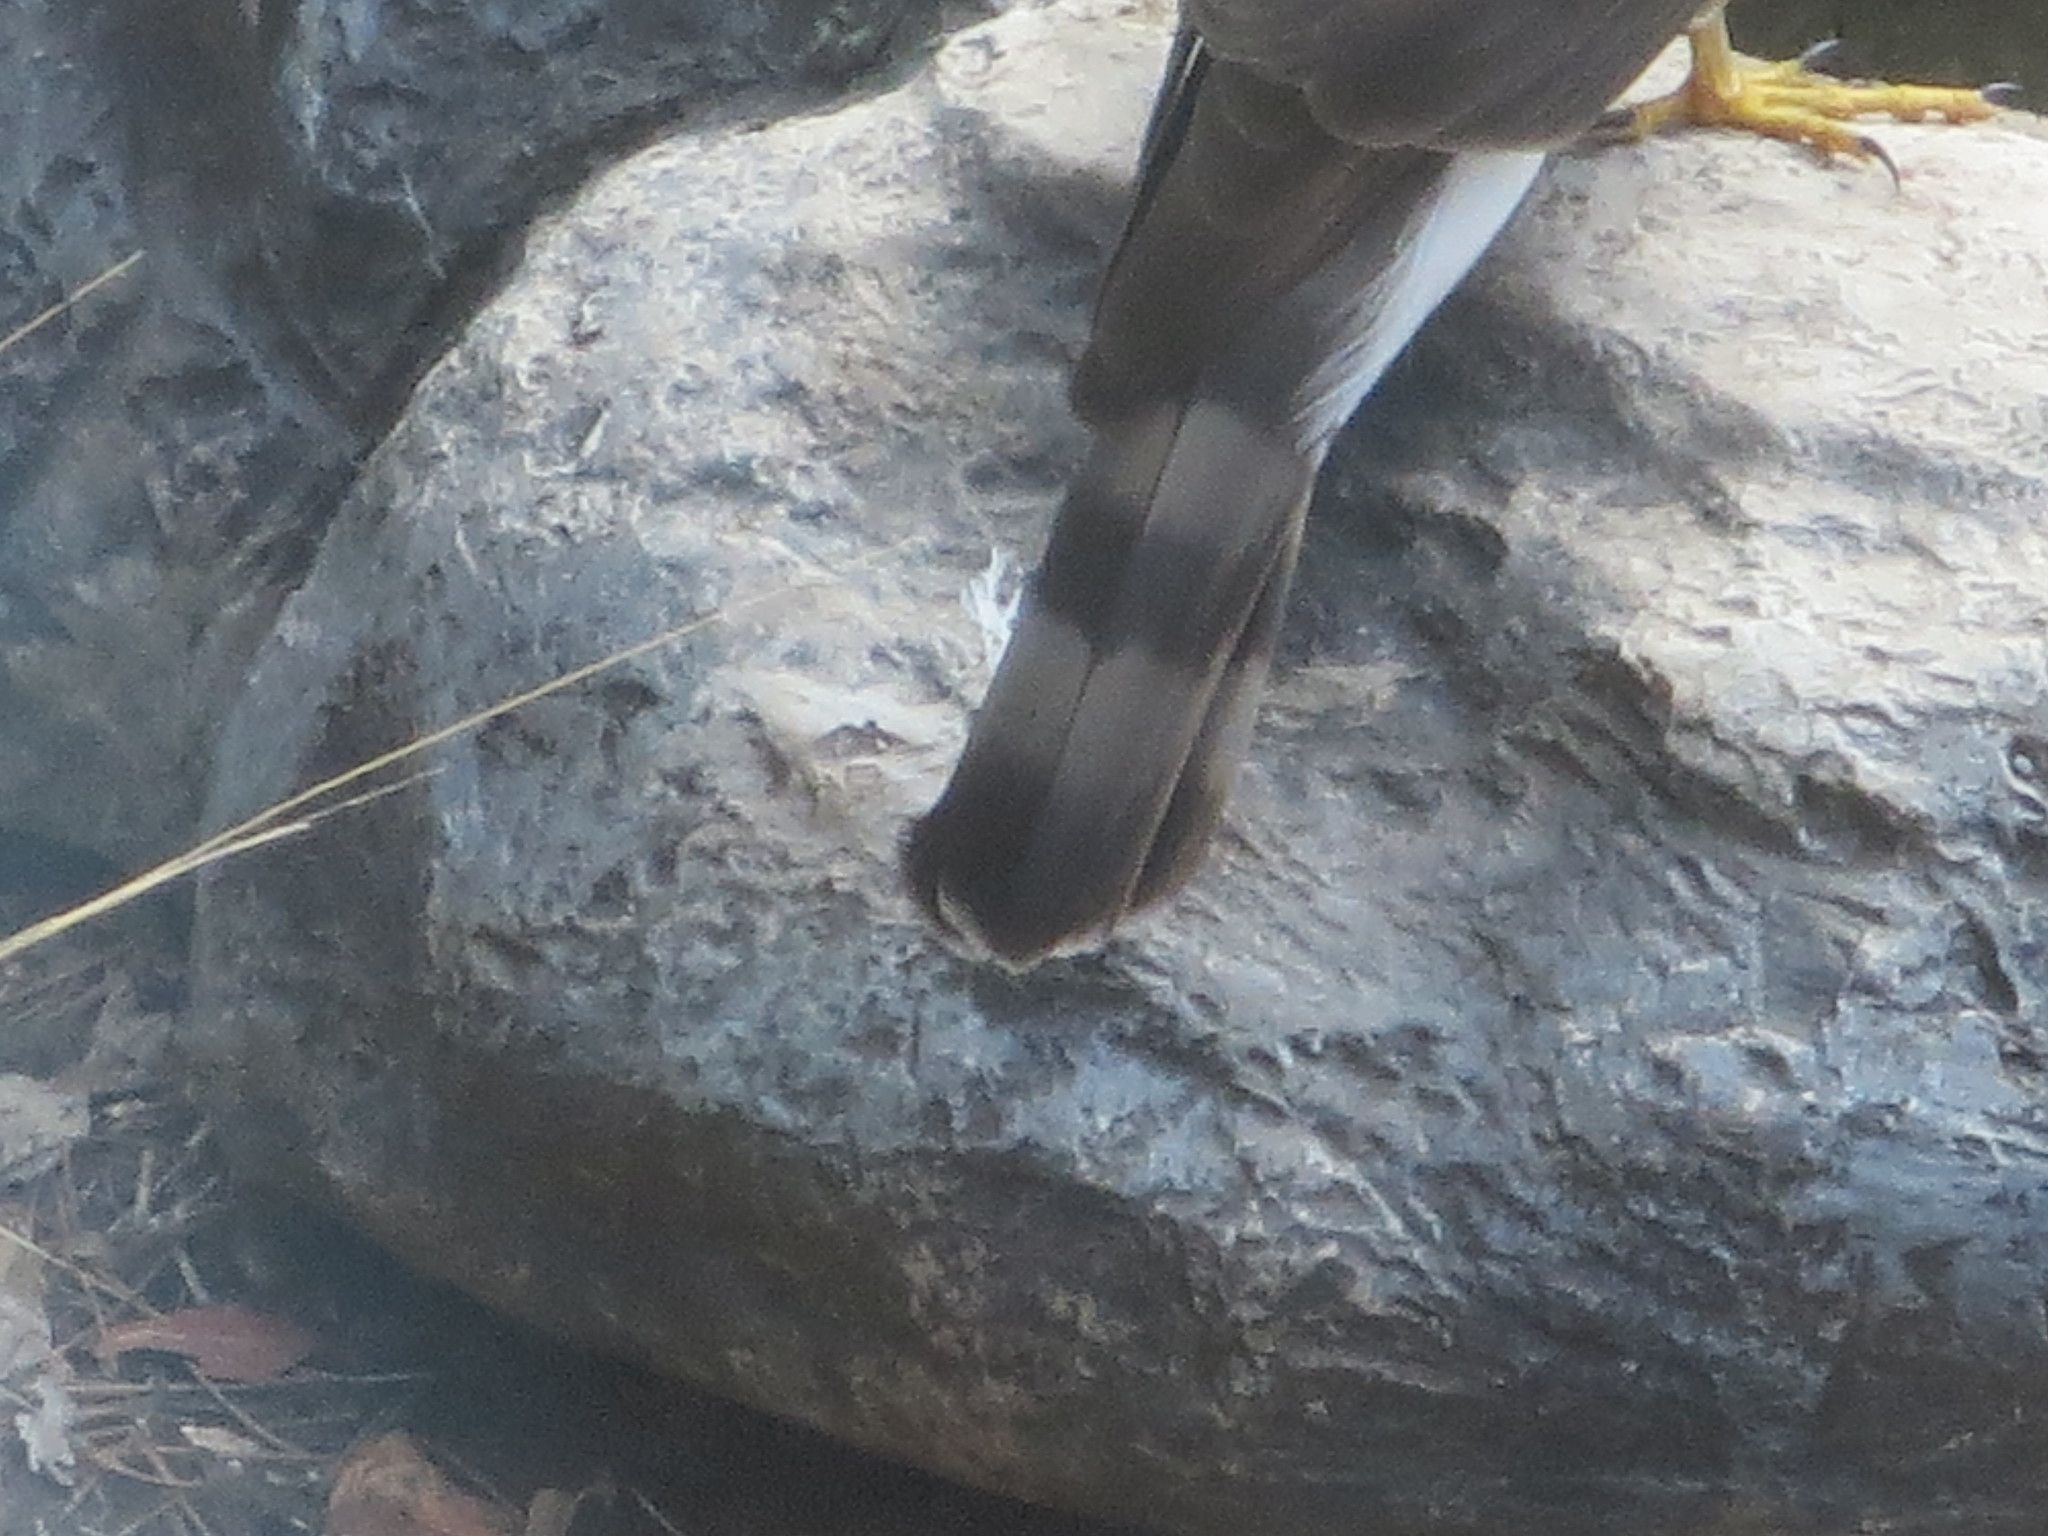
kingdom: Animalia
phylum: Chordata
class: Aves
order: Accipitriformes
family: Accipitridae
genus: Accipiter
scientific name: Accipiter striatus
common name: Sharp-shinned hawk
